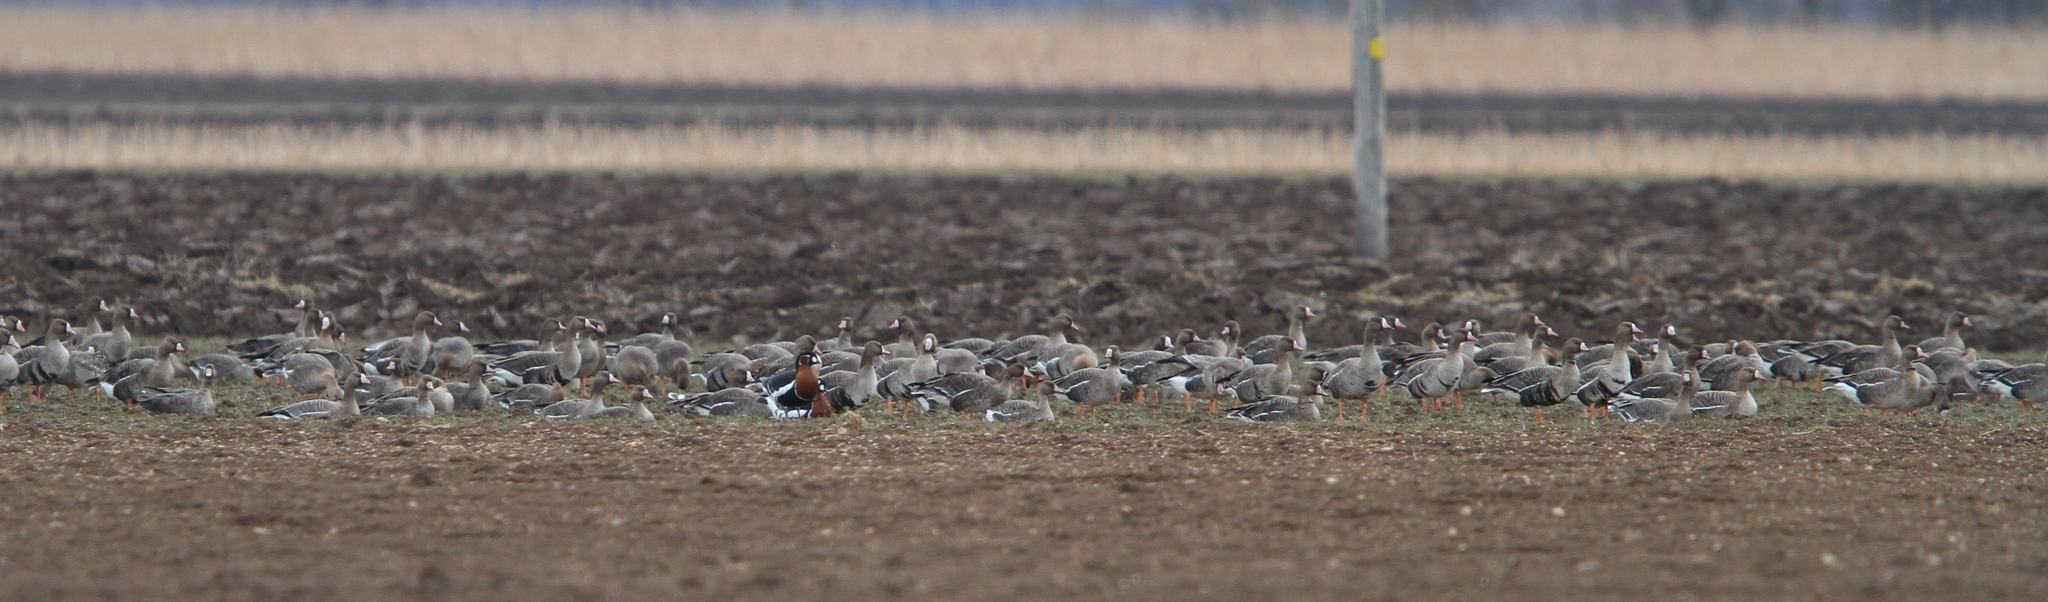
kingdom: Animalia
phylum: Chordata
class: Aves
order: Anseriformes
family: Anatidae
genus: Branta
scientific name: Branta ruficollis
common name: Red-breasted goose
